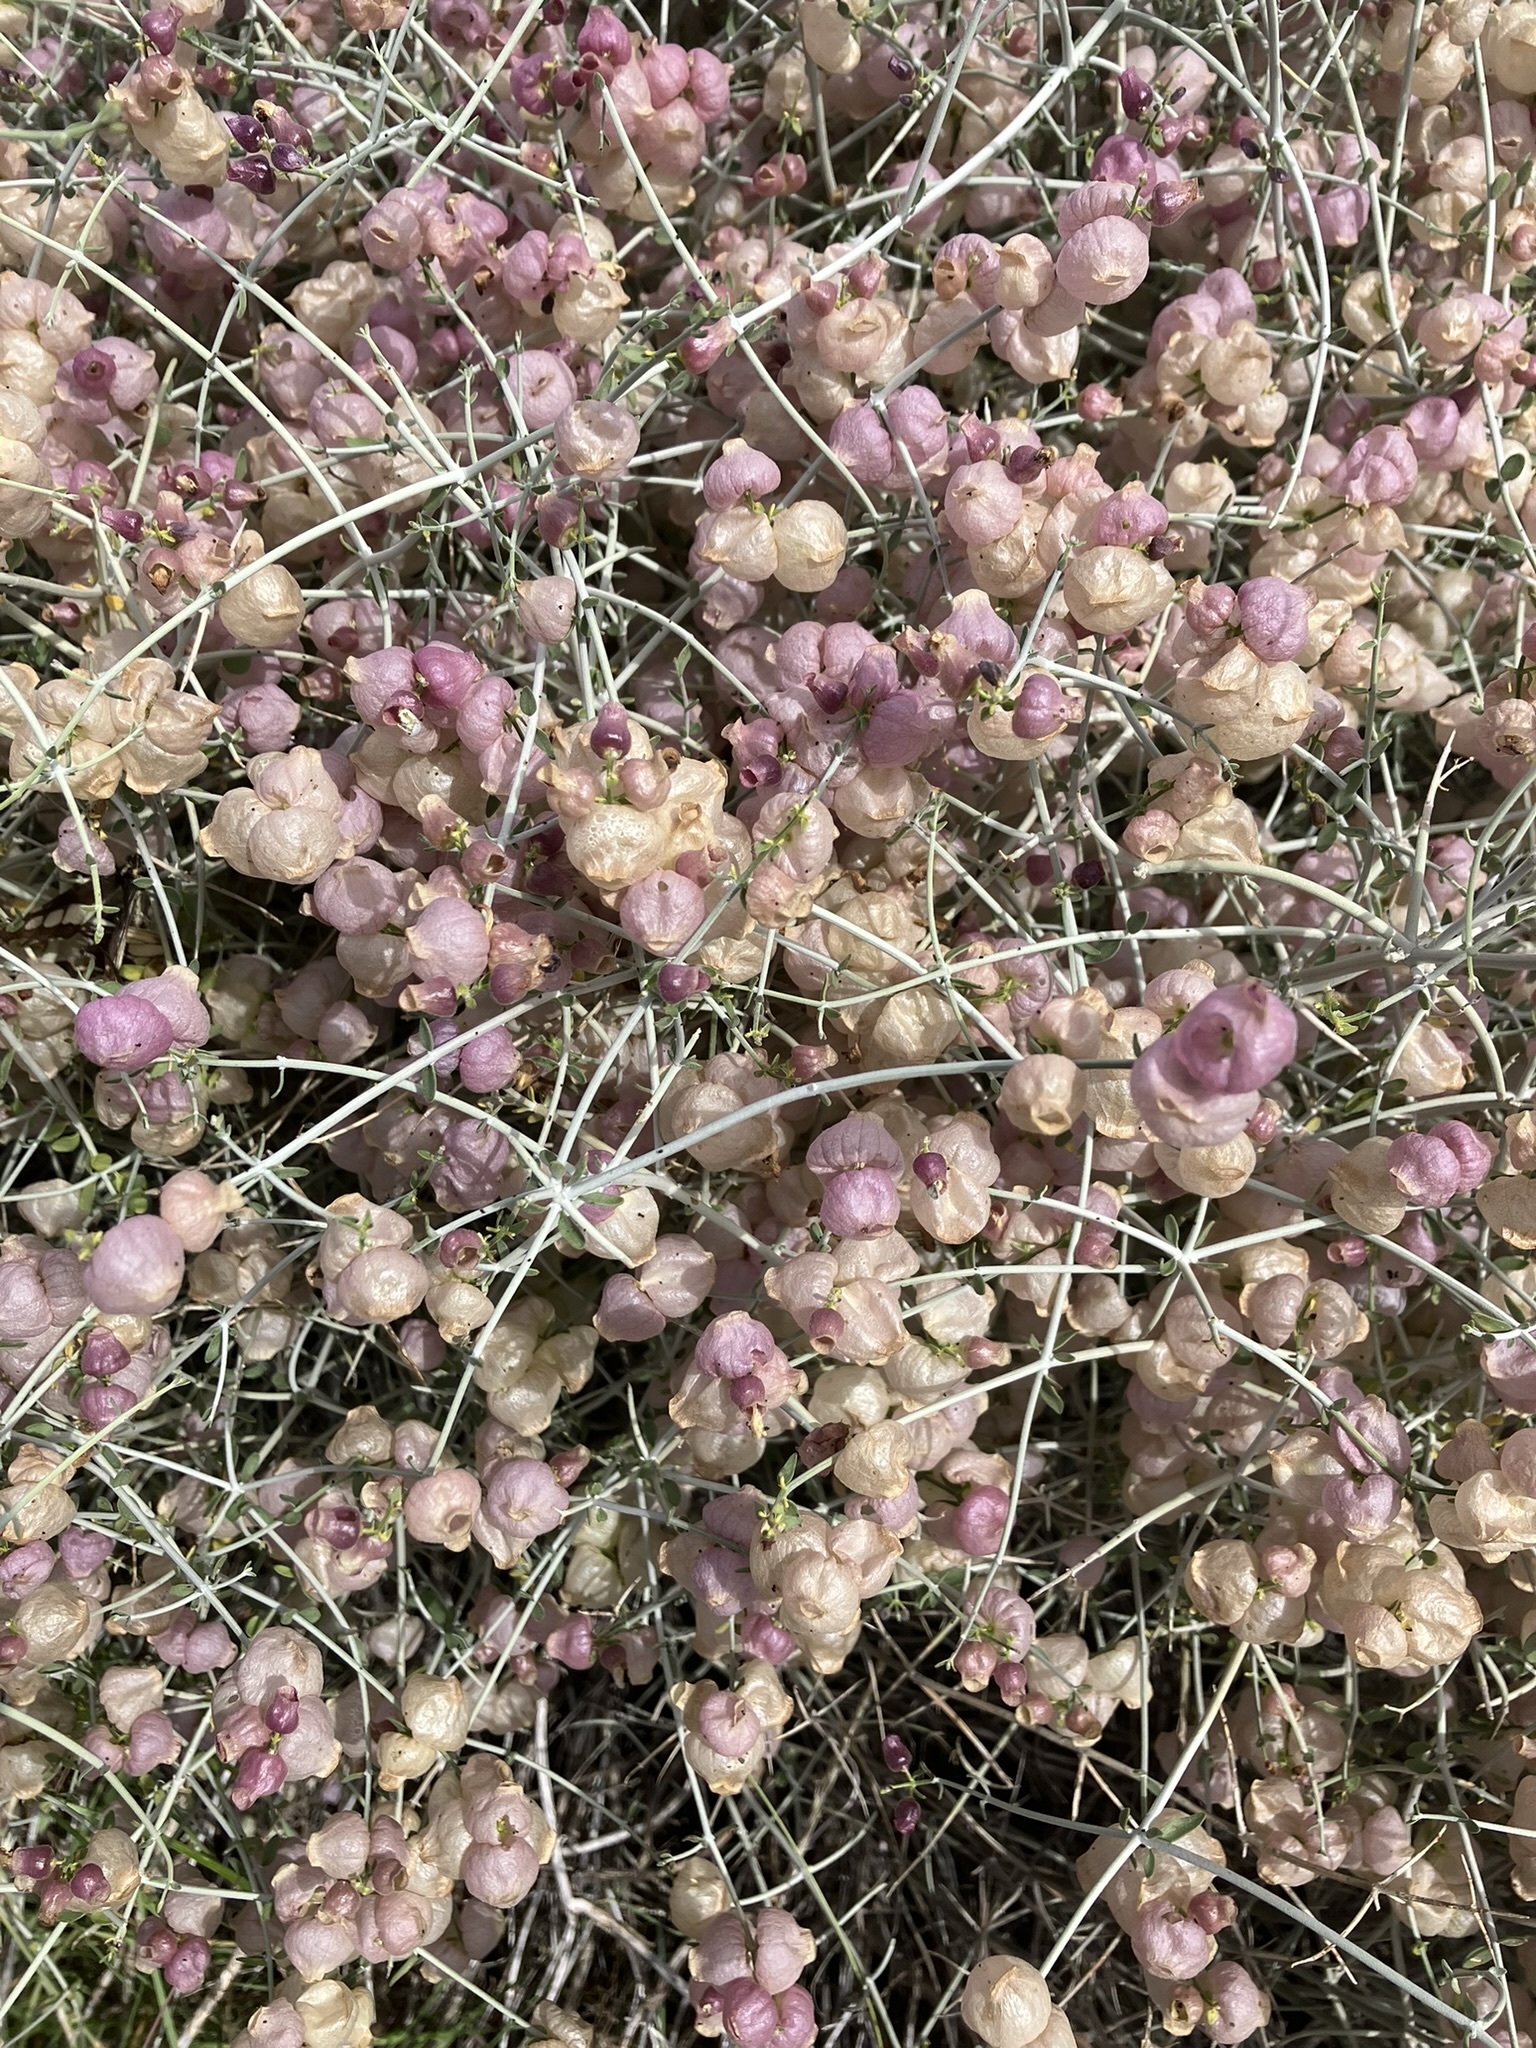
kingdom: Plantae
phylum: Tracheophyta
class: Magnoliopsida
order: Lamiales
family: Lamiaceae
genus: Scutellaria
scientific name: Scutellaria mexicana
